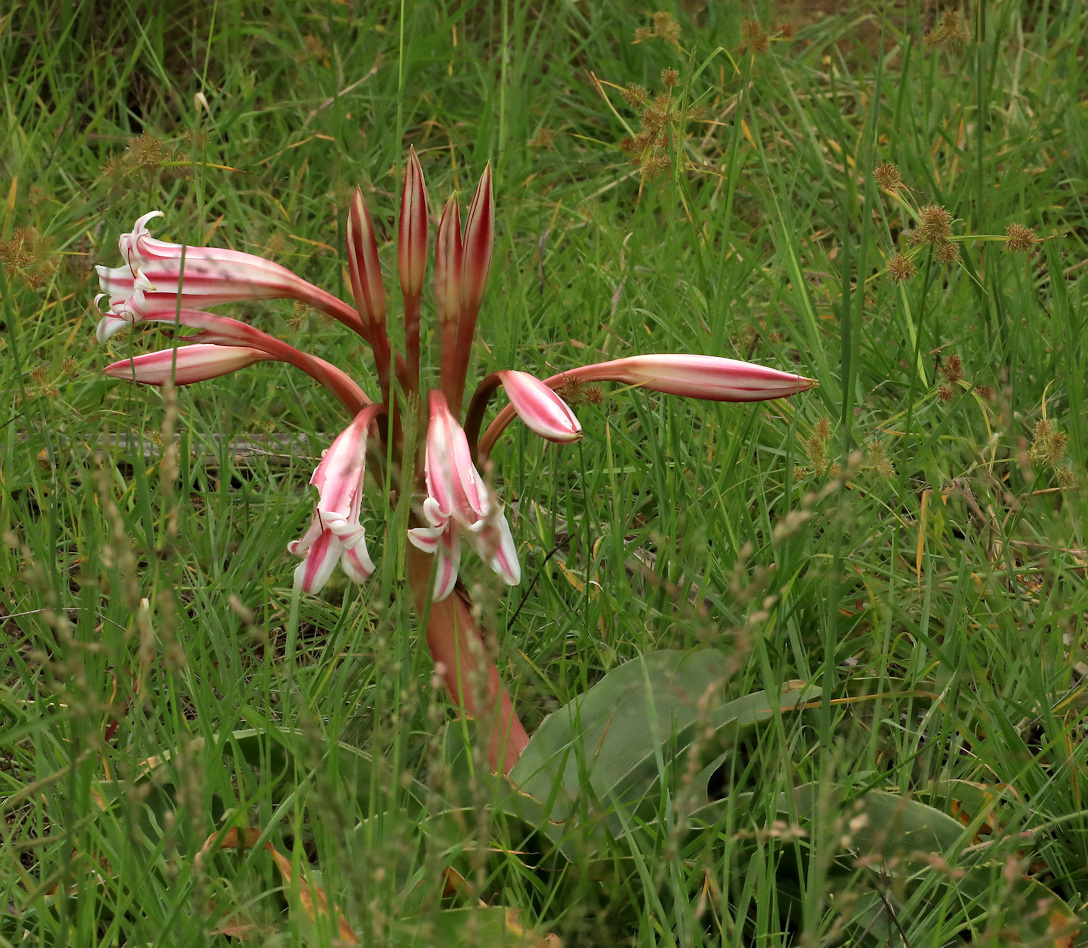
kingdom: Plantae
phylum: Tracheophyta
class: Liliopsida
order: Asparagales
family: Amaryllidaceae
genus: Crinum
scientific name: Crinum stuhlmannii
